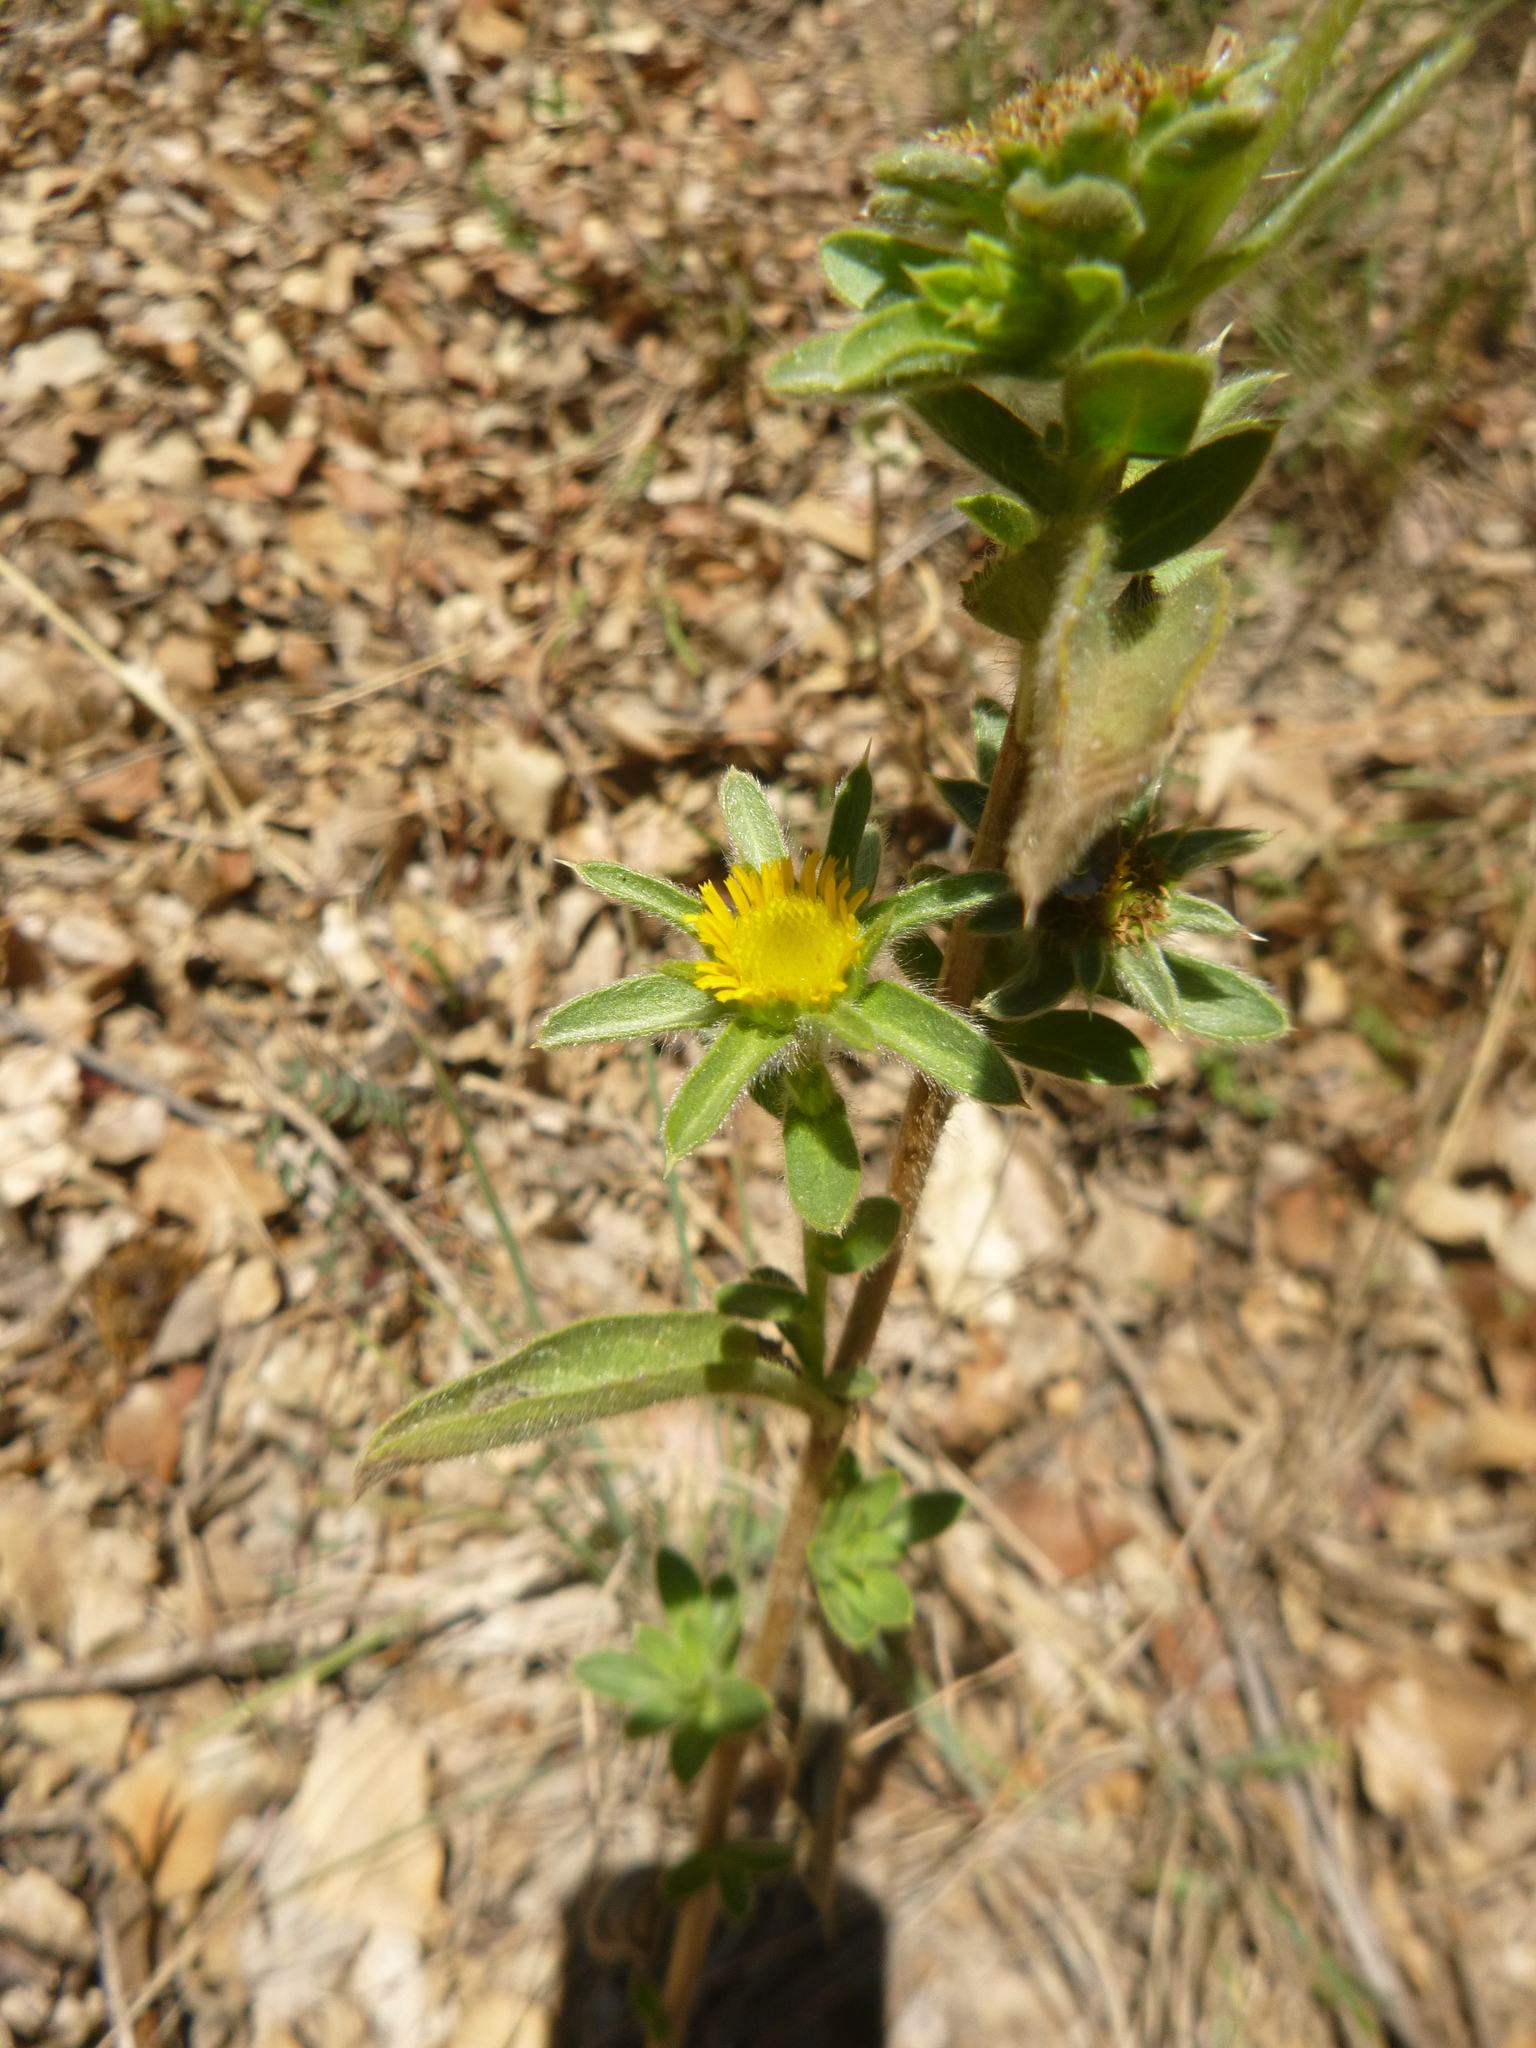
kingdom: Plantae
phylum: Tracheophyta
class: Magnoliopsida
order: Asterales
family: Asteraceae
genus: Pallenis
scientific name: Pallenis spinosa
